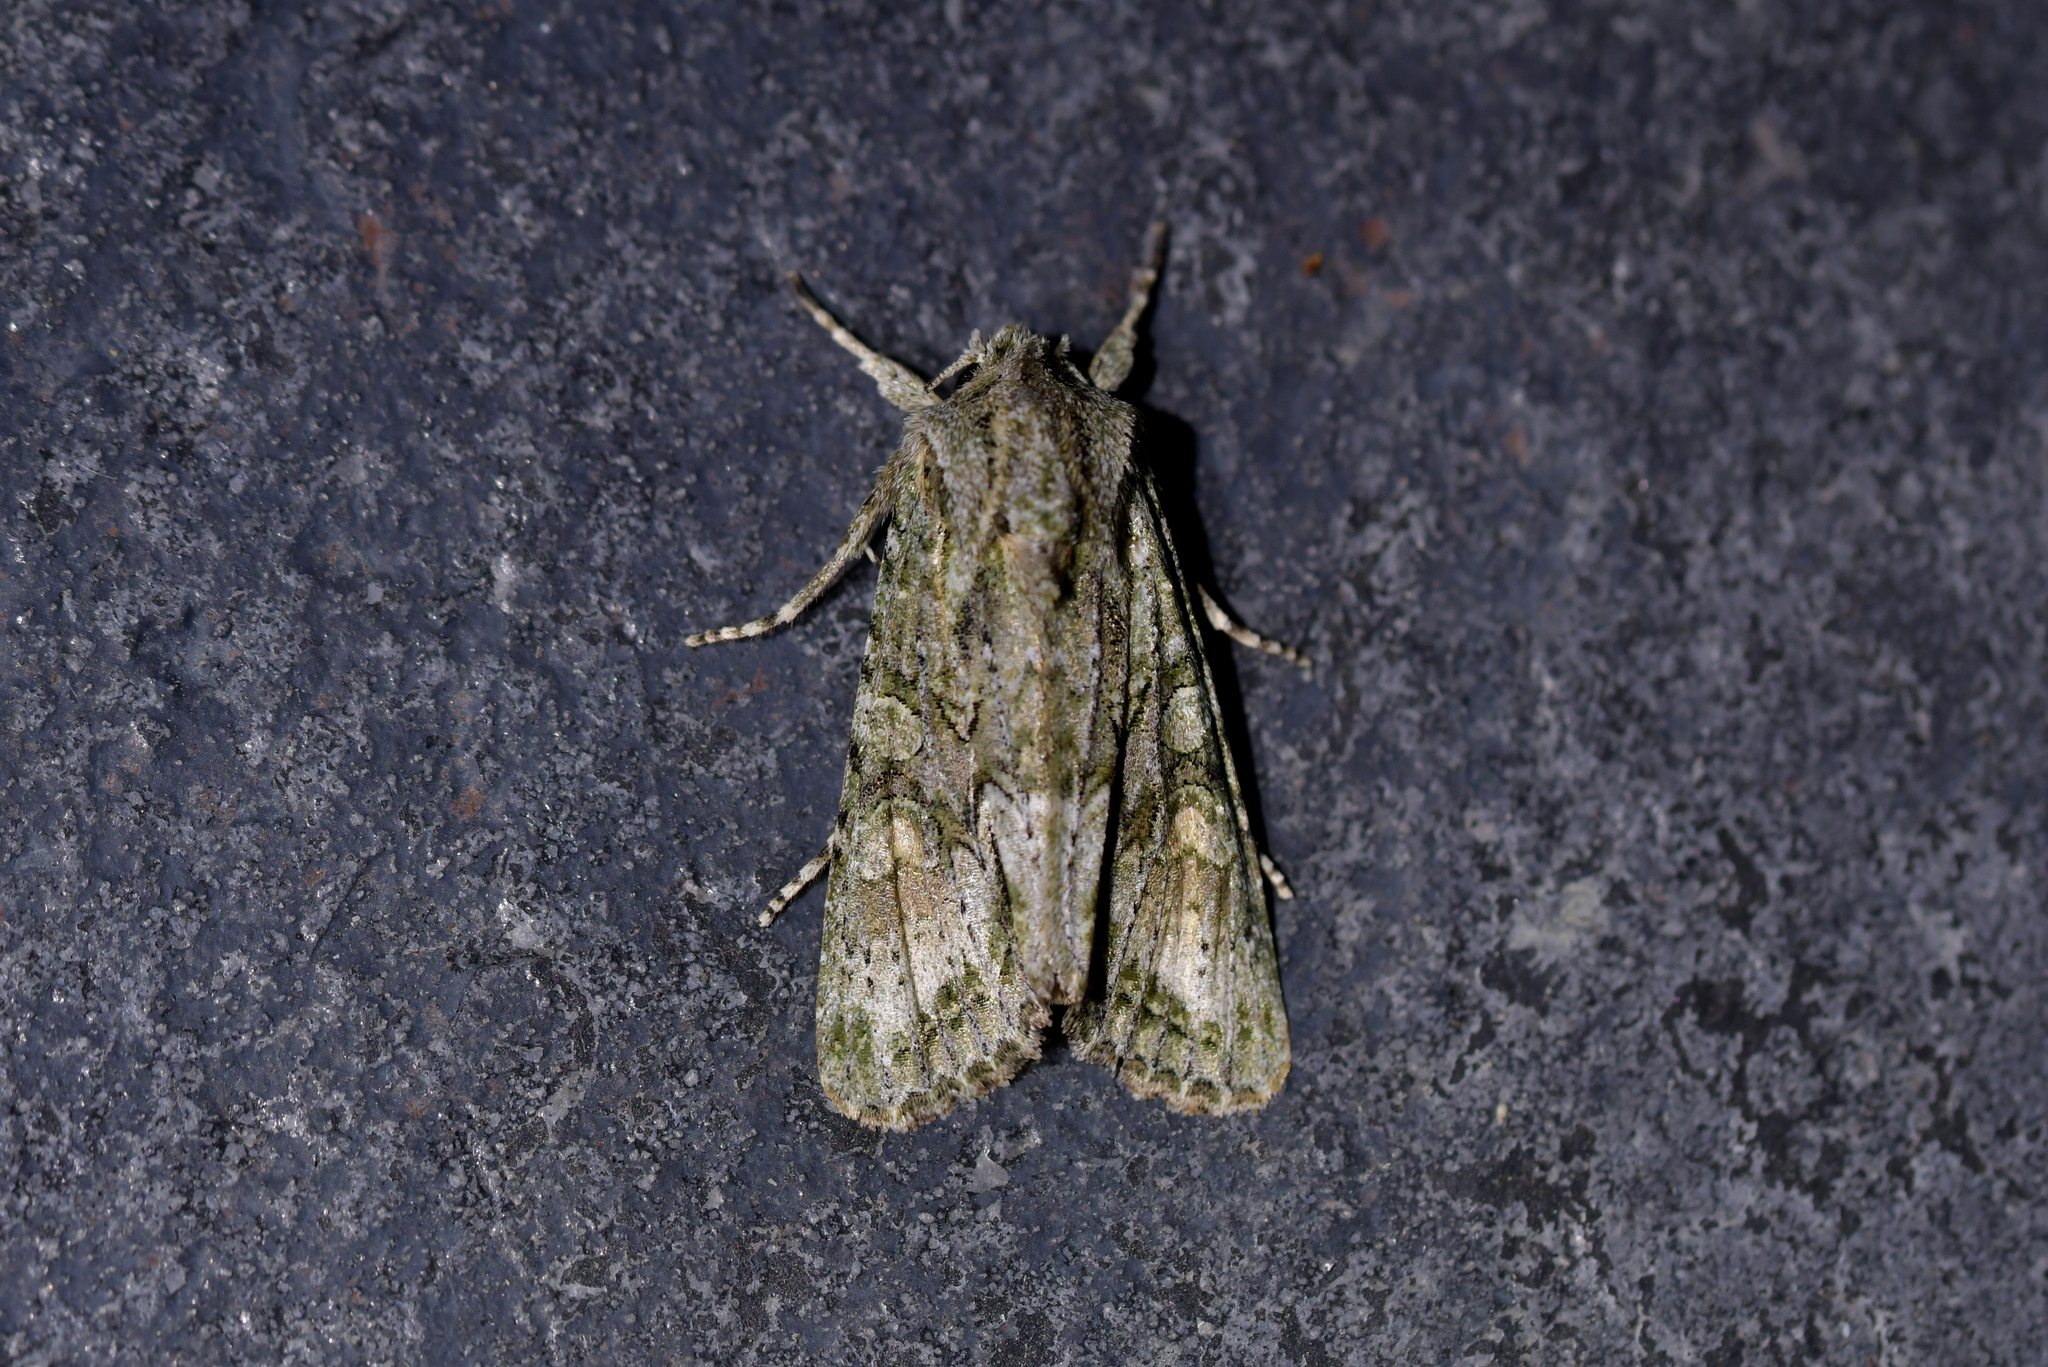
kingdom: Animalia
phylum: Arthropoda
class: Insecta
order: Lepidoptera
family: Noctuidae
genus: Ichneutica
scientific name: Ichneutica mutans
